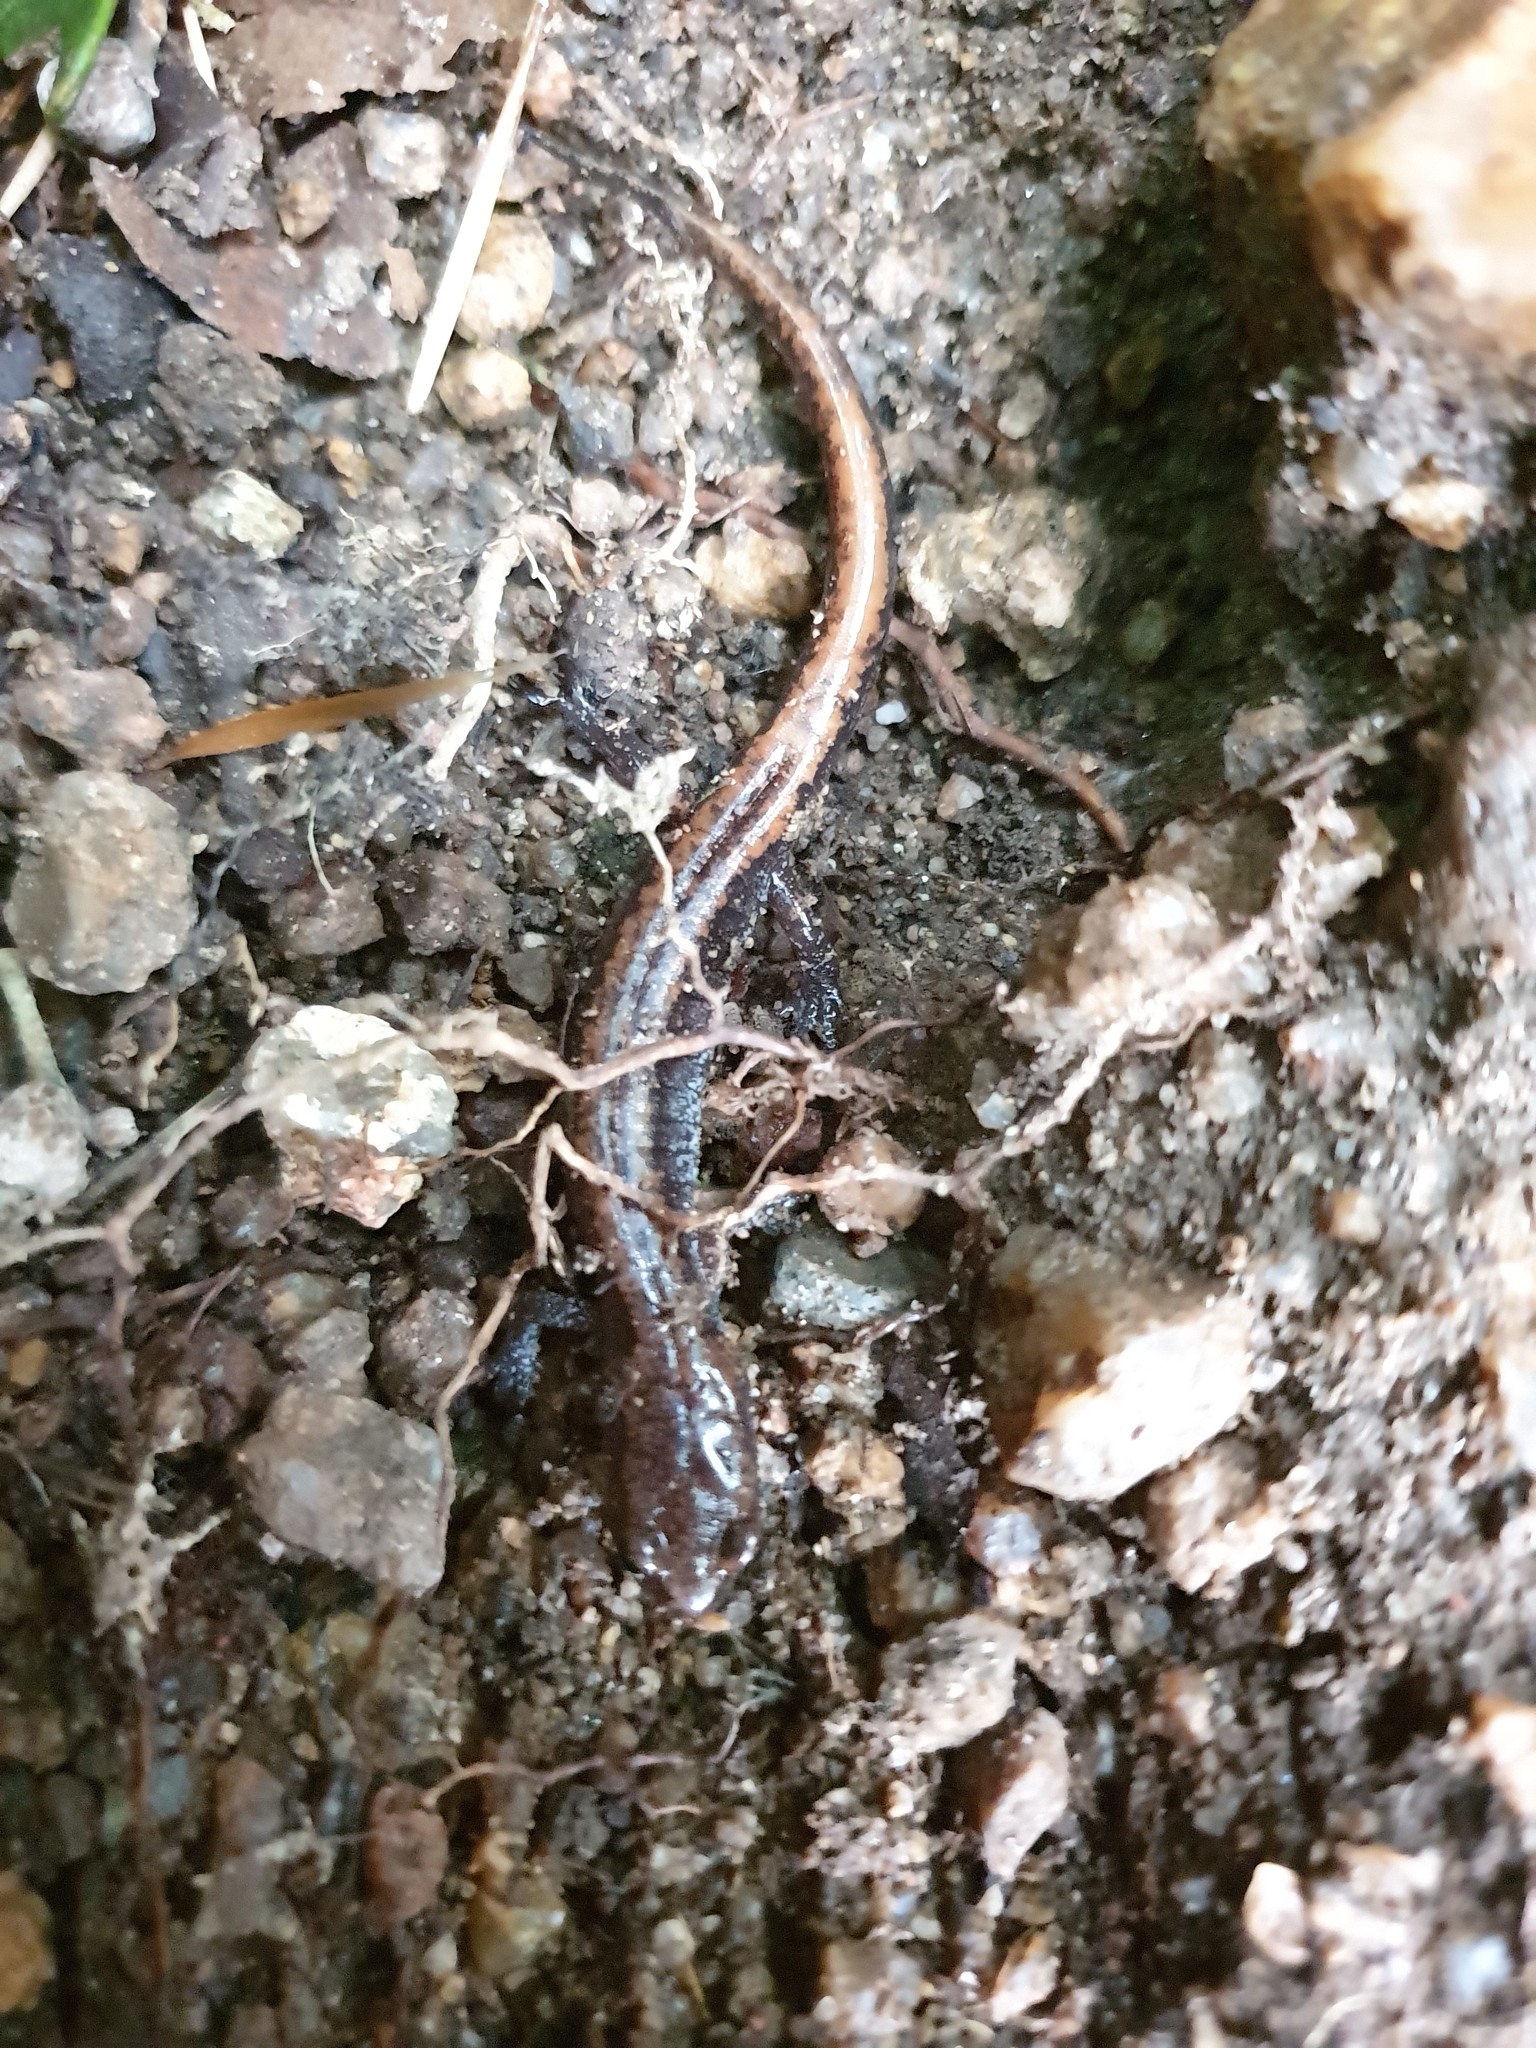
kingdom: Animalia
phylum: Chordata
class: Amphibia
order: Caudata
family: Plethodontidae
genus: Karsenia
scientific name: Karsenia koreana
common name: Korean crevice salamander
